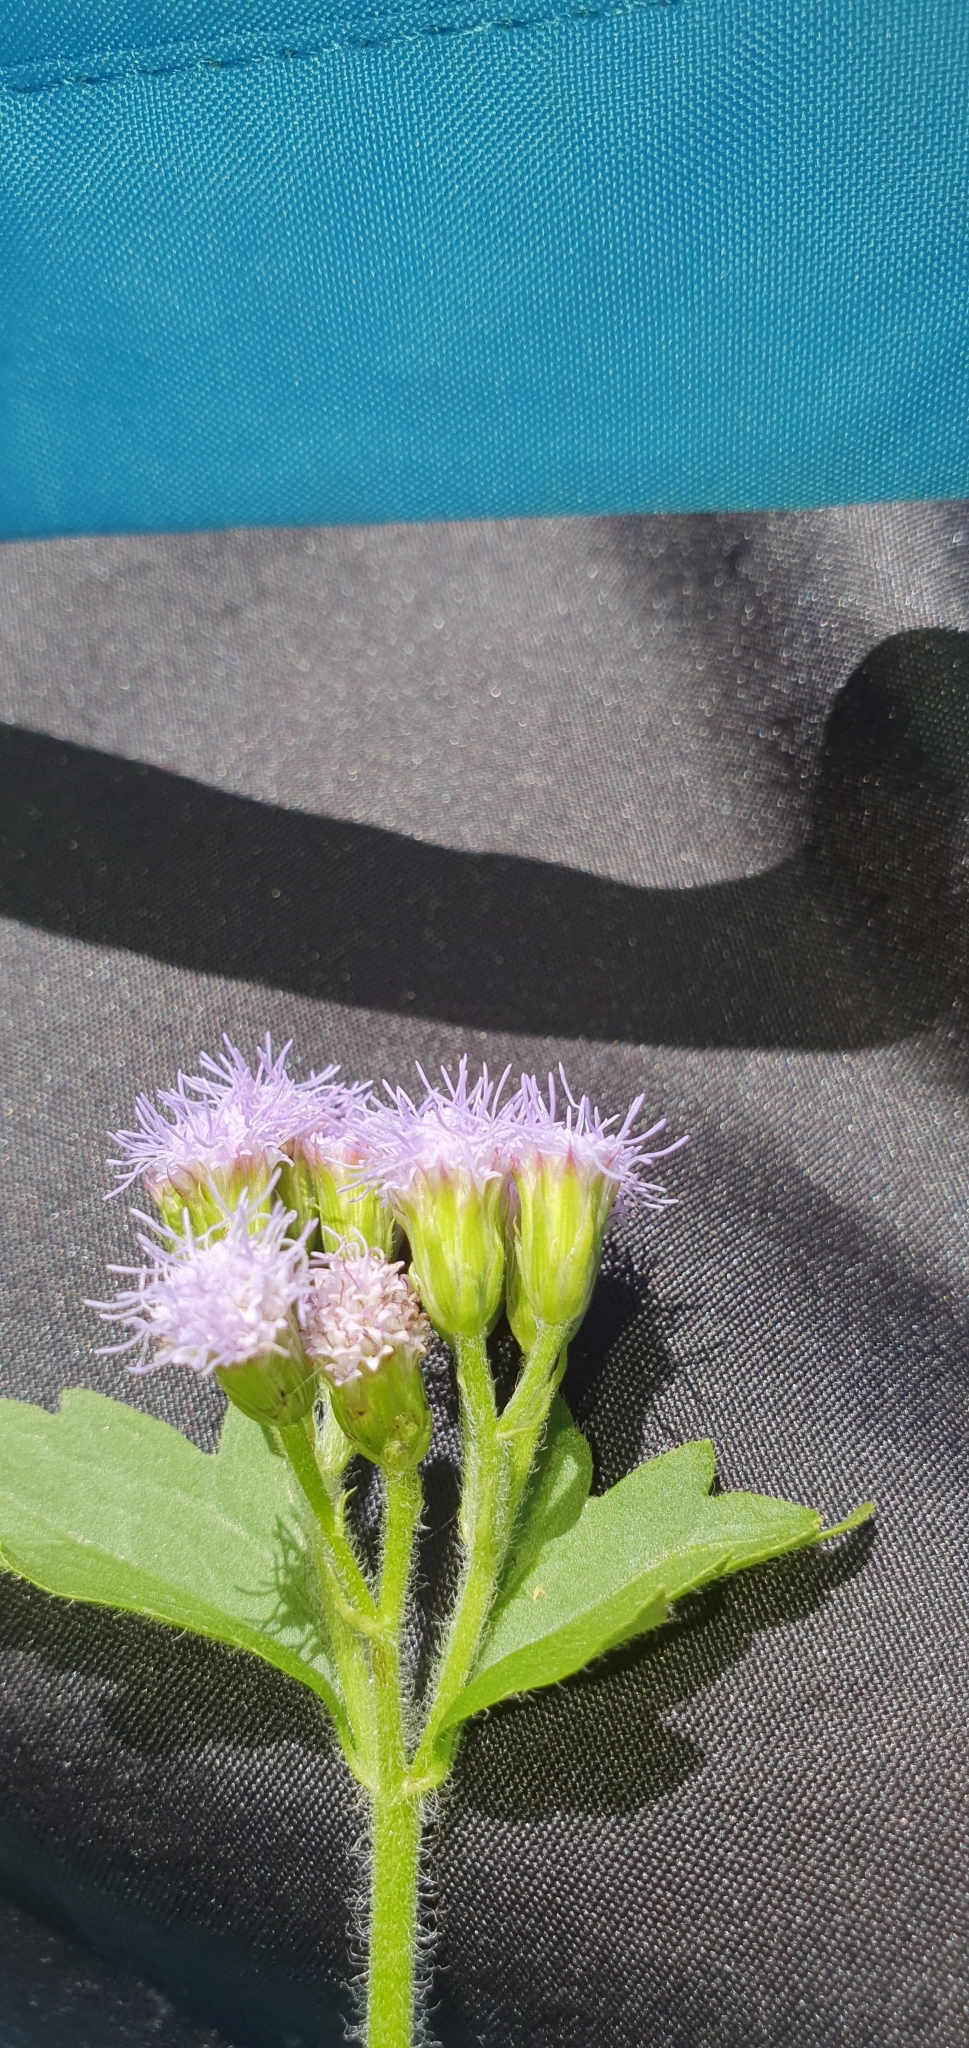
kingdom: Plantae
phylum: Tracheophyta
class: Magnoliopsida
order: Asterales
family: Asteraceae
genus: Praxelis
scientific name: Praxelis clematidea
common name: Praxelis
